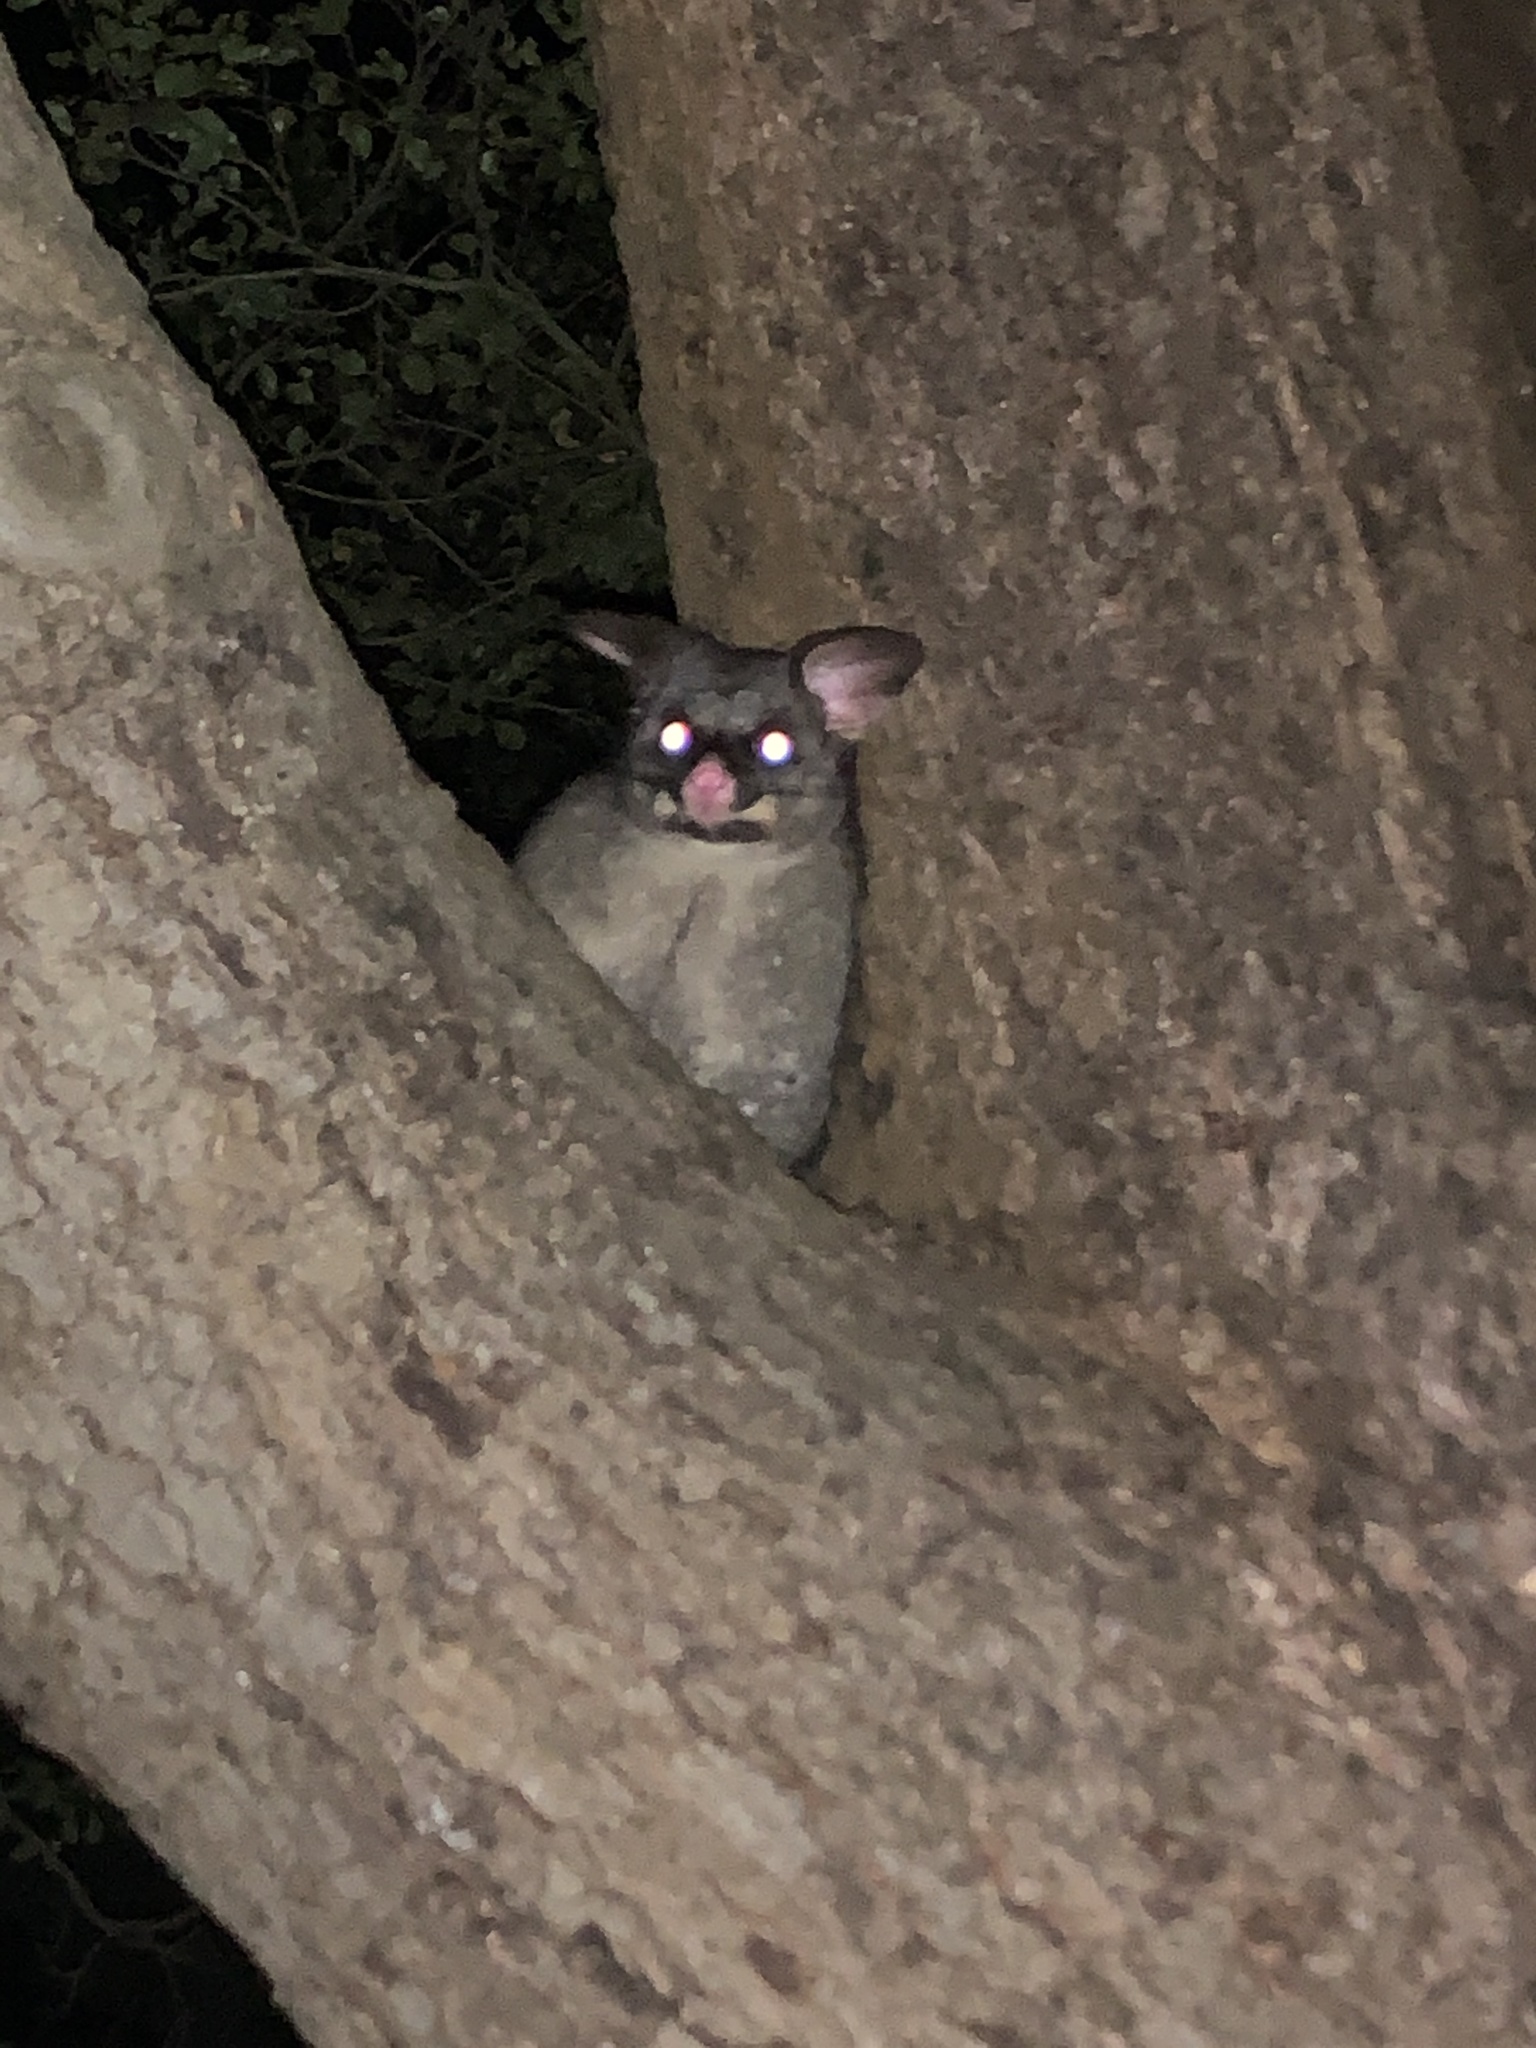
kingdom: Animalia
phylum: Chordata
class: Mammalia
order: Diprotodontia
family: Phalangeridae
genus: Trichosurus
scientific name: Trichosurus vulpecula
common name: Common brushtail
